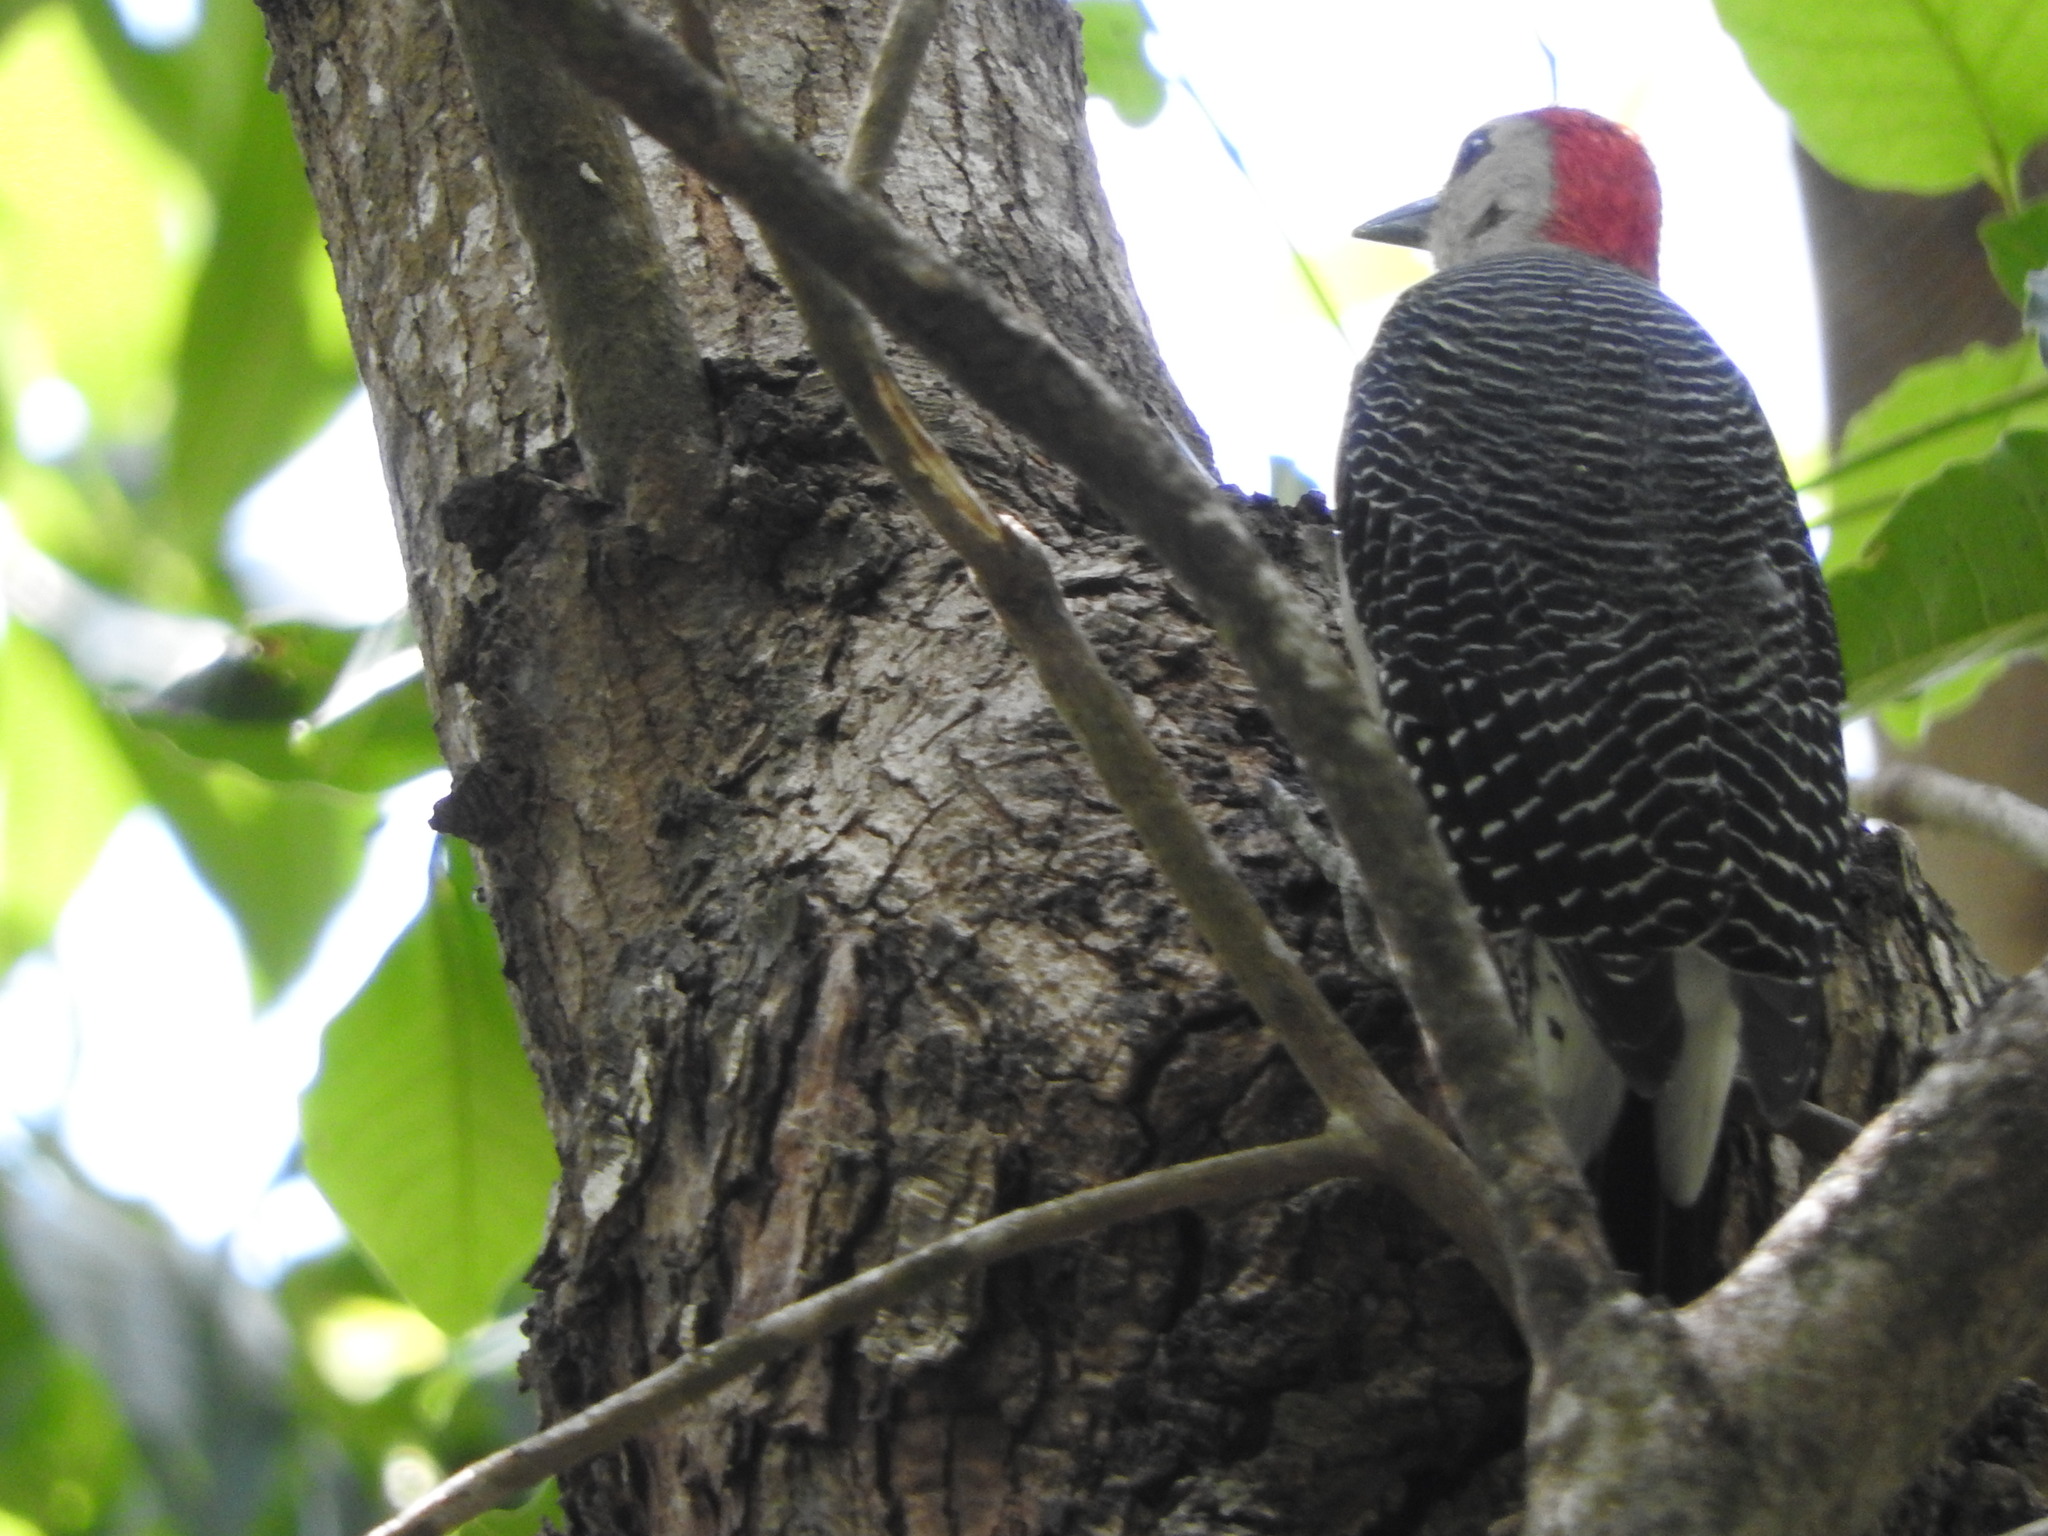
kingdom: Animalia
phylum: Chordata
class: Aves
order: Piciformes
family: Picidae
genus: Melanerpes
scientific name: Melanerpes aurifrons
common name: Golden-fronted woodpecker
